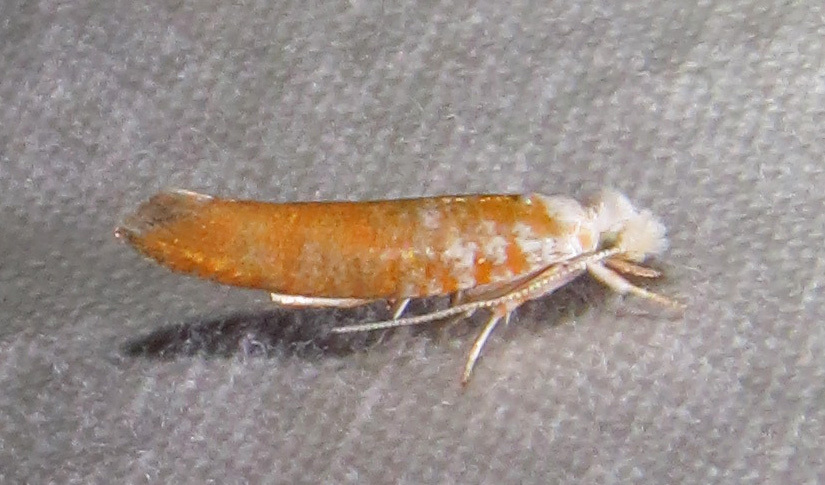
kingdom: Animalia
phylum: Arthropoda
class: Insecta
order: Lepidoptera
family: Yponomeutidae
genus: Zelleria
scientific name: Zelleria retiniella
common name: Brindled zelleria
